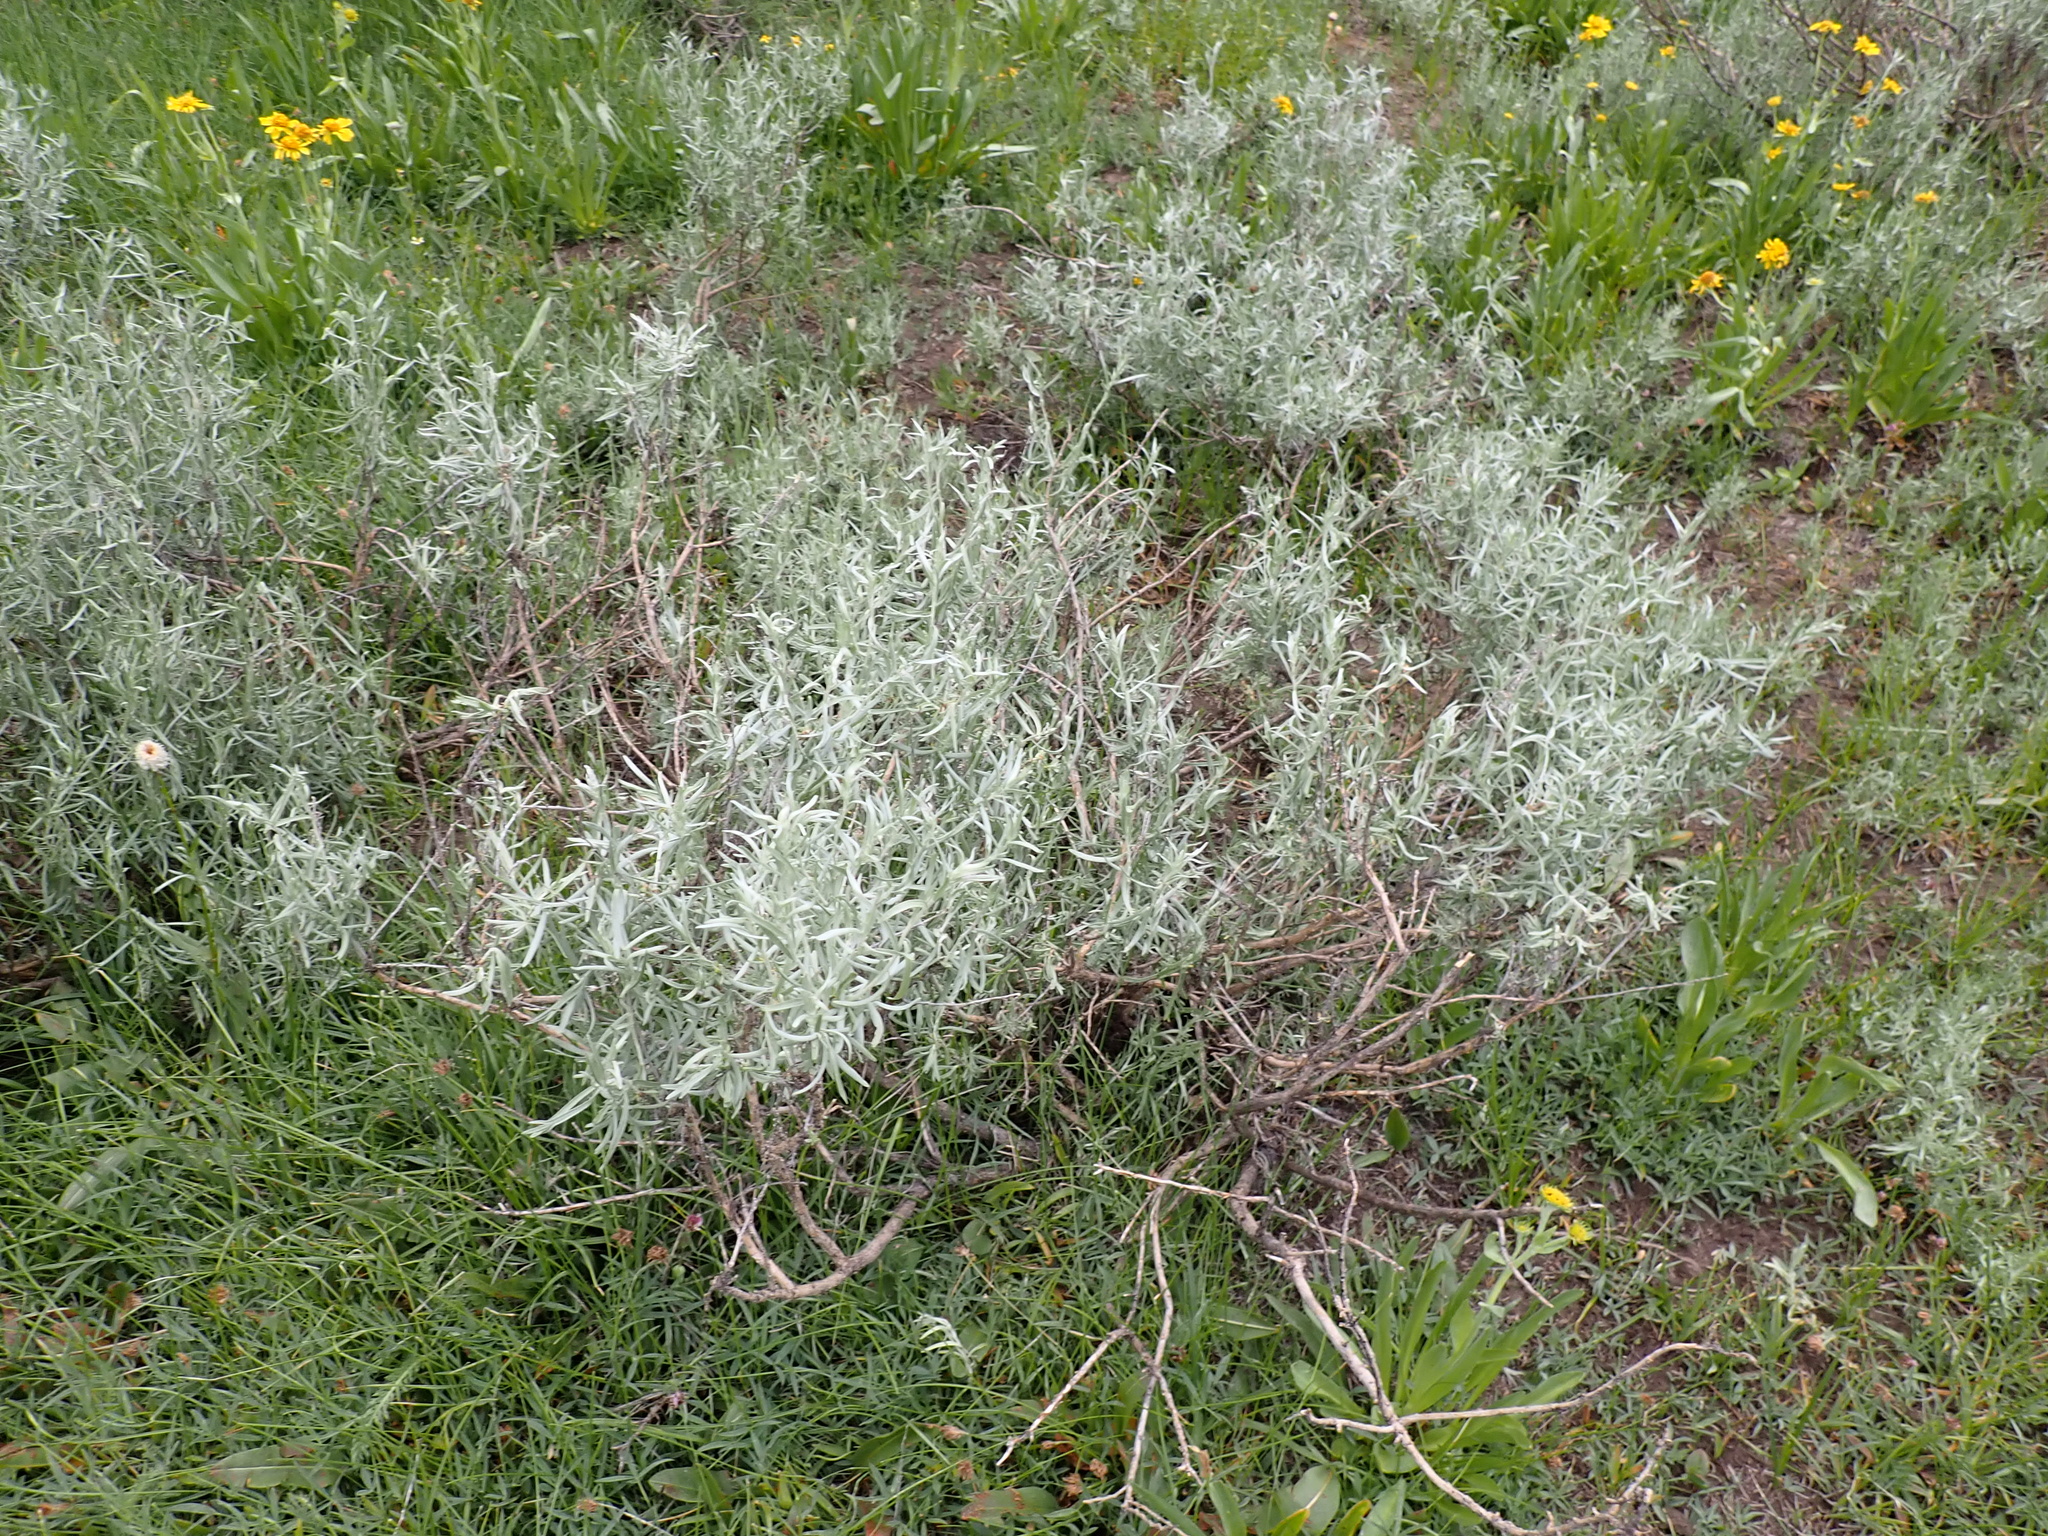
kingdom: Plantae
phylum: Tracheophyta
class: Magnoliopsida
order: Asterales
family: Asteraceae
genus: Artemisia
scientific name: Artemisia cana
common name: Silver sagebrush
